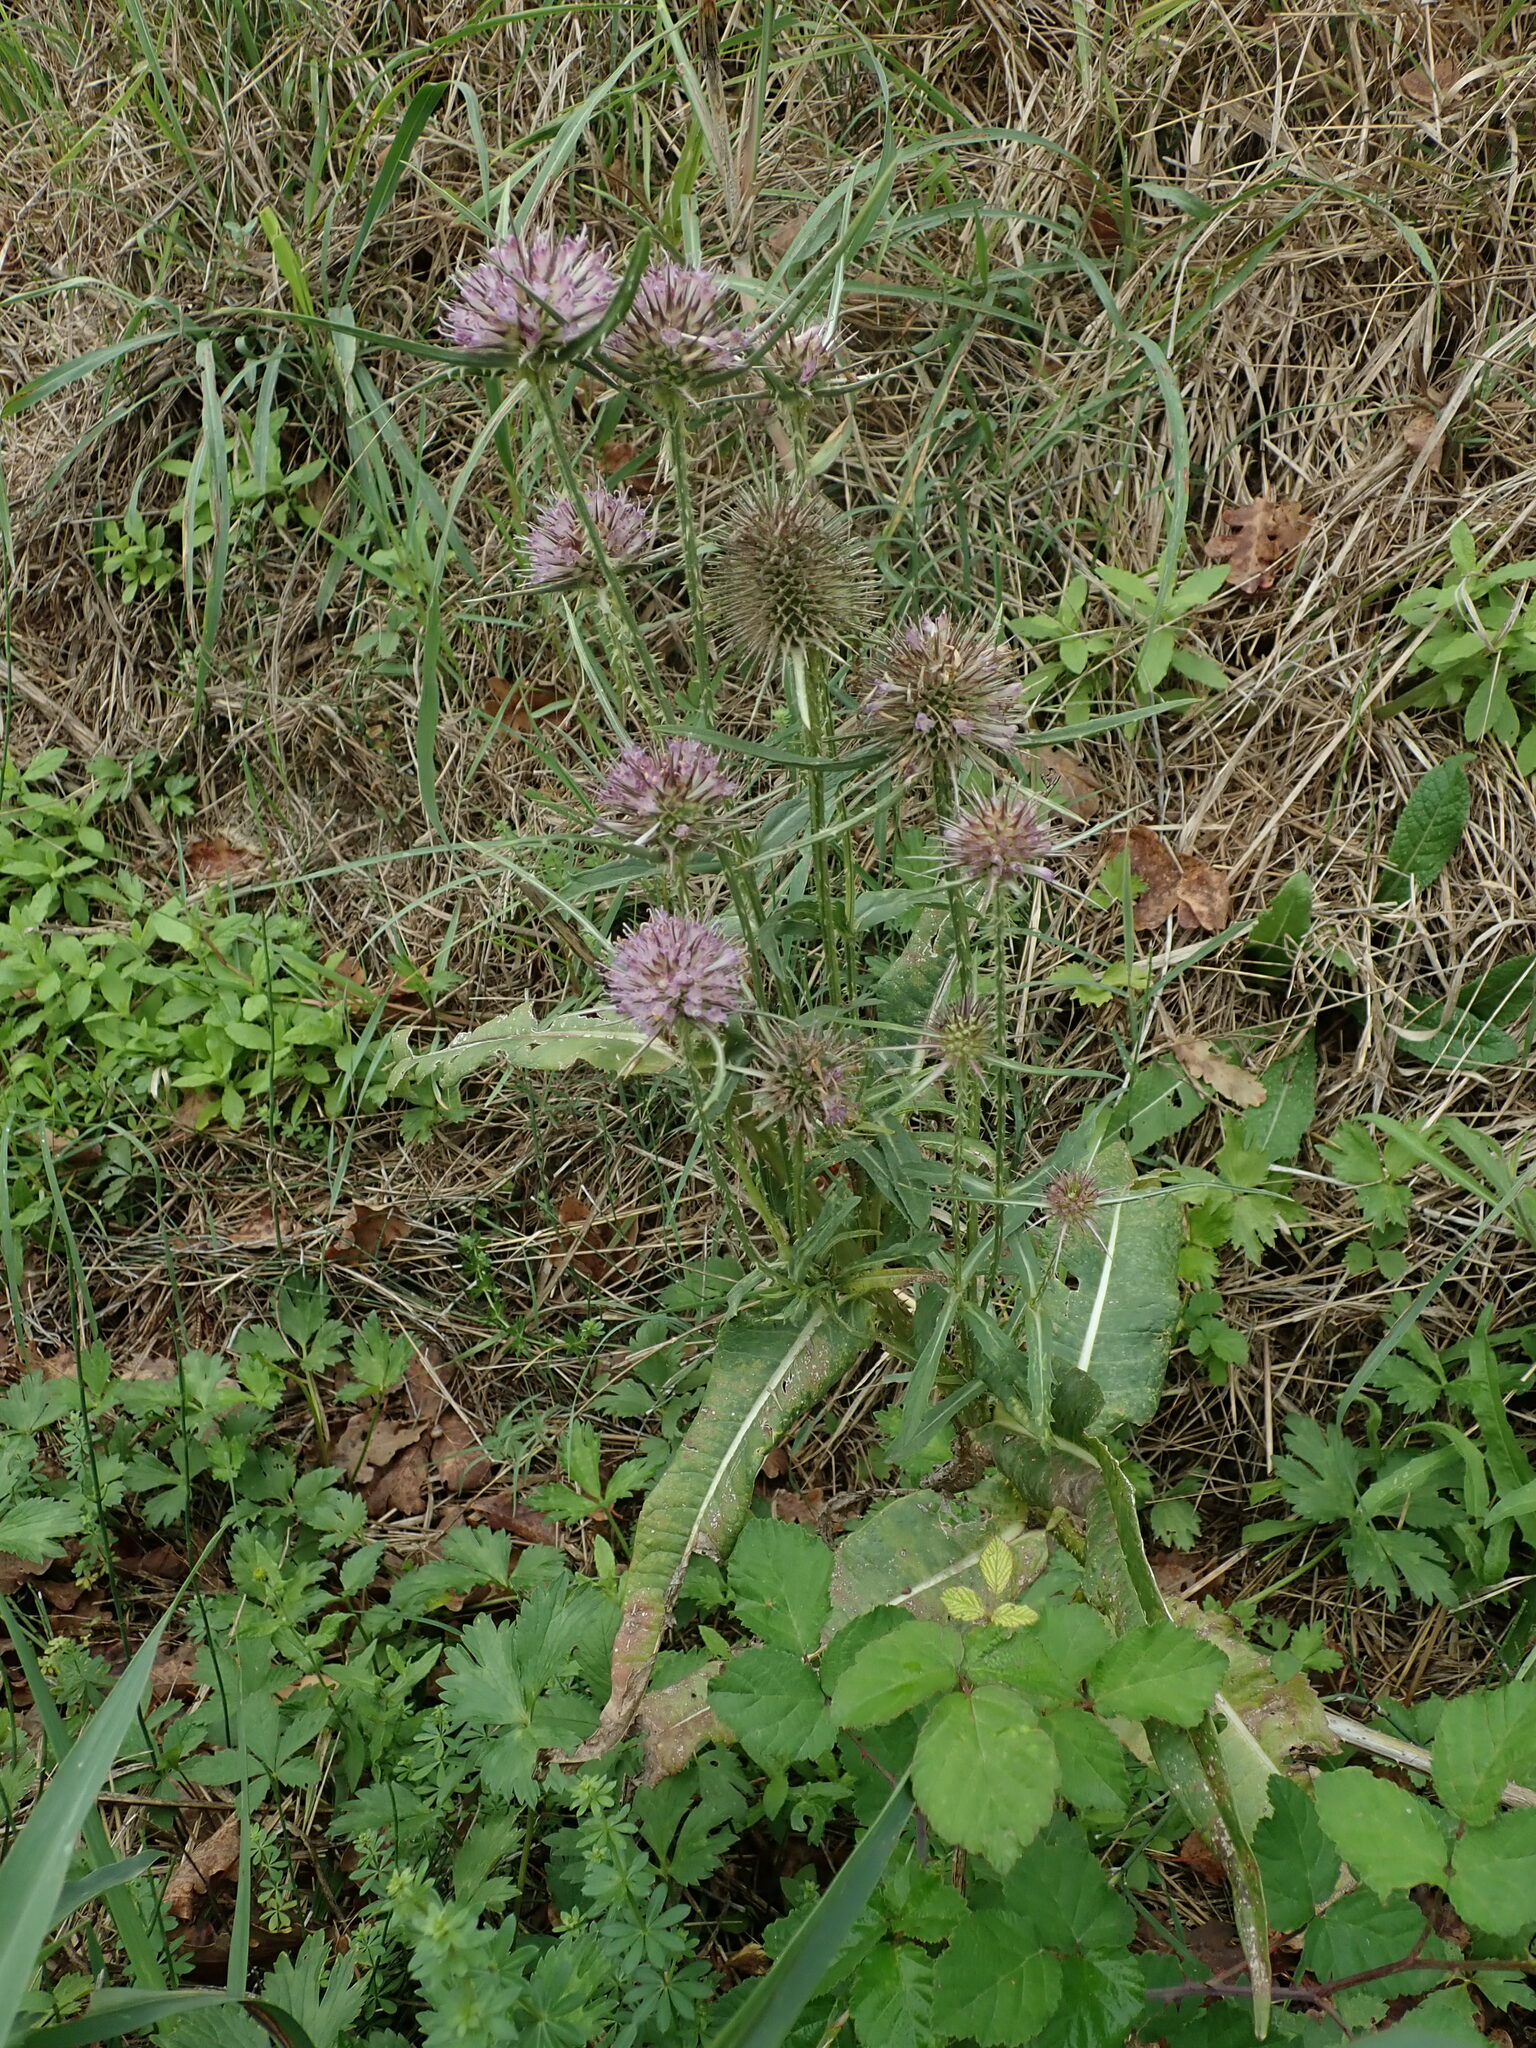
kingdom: Plantae
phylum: Tracheophyta
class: Magnoliopsida
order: Dipsacales
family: Caprifoliaceae
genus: Dipsacus
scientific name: Dipsacus fullonum
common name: Teasel
